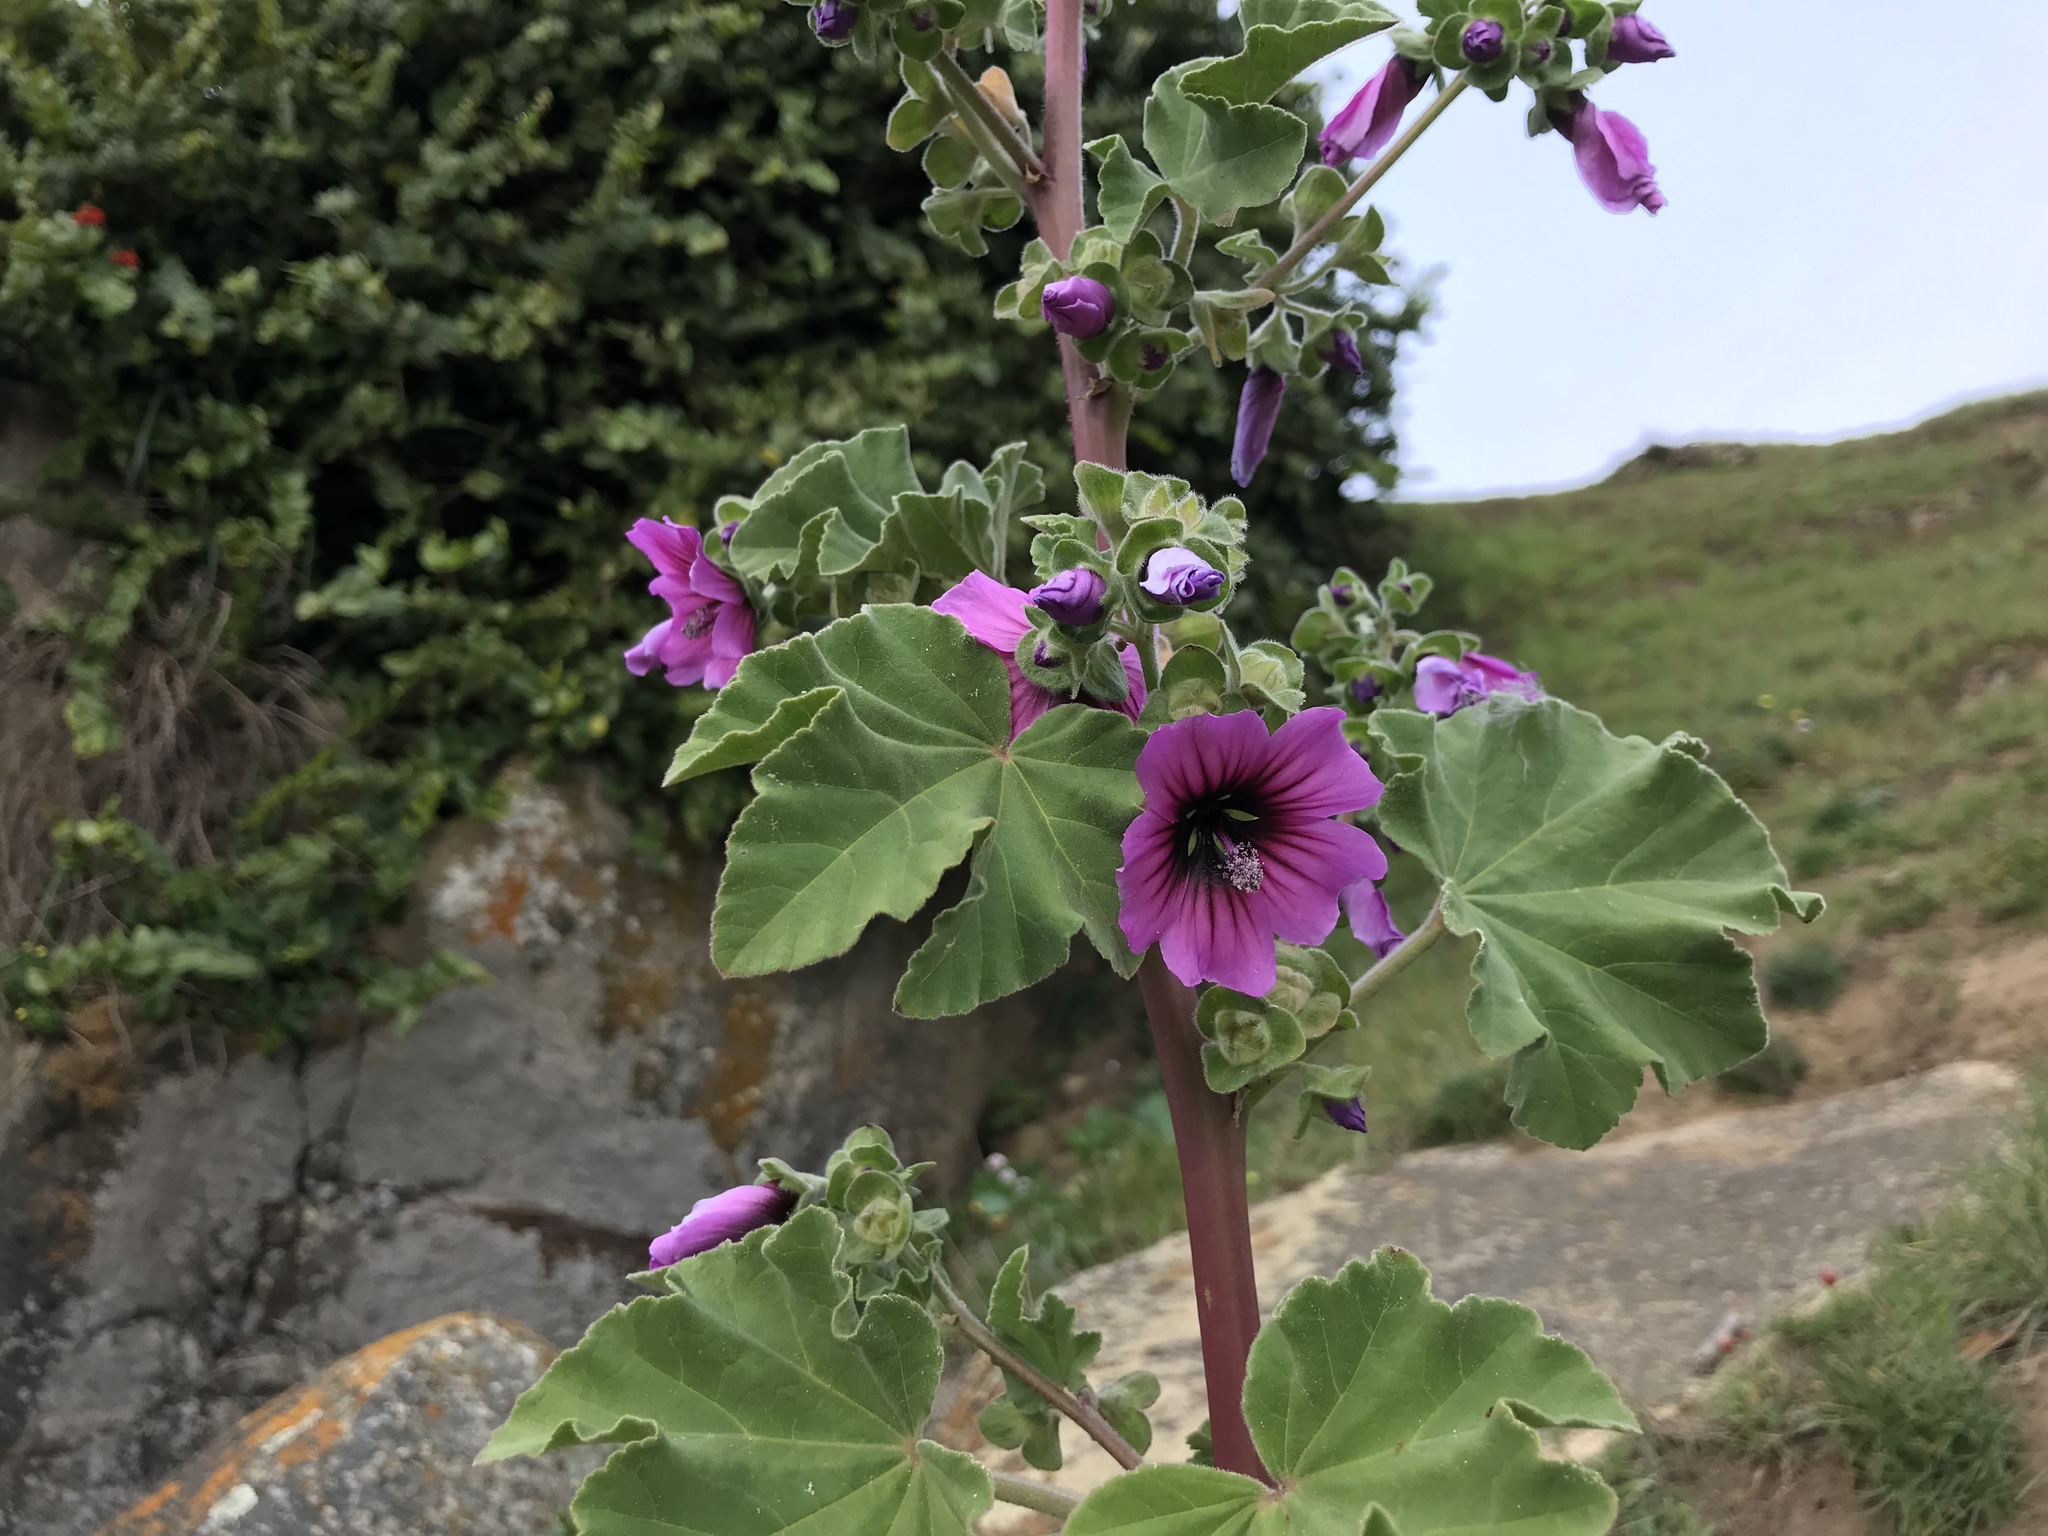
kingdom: Plantae
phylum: Tracheophyta
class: Magnoliopsida
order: Malvales
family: Malvaceae
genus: Malva
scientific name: Malva arborea
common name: Tree mallow
